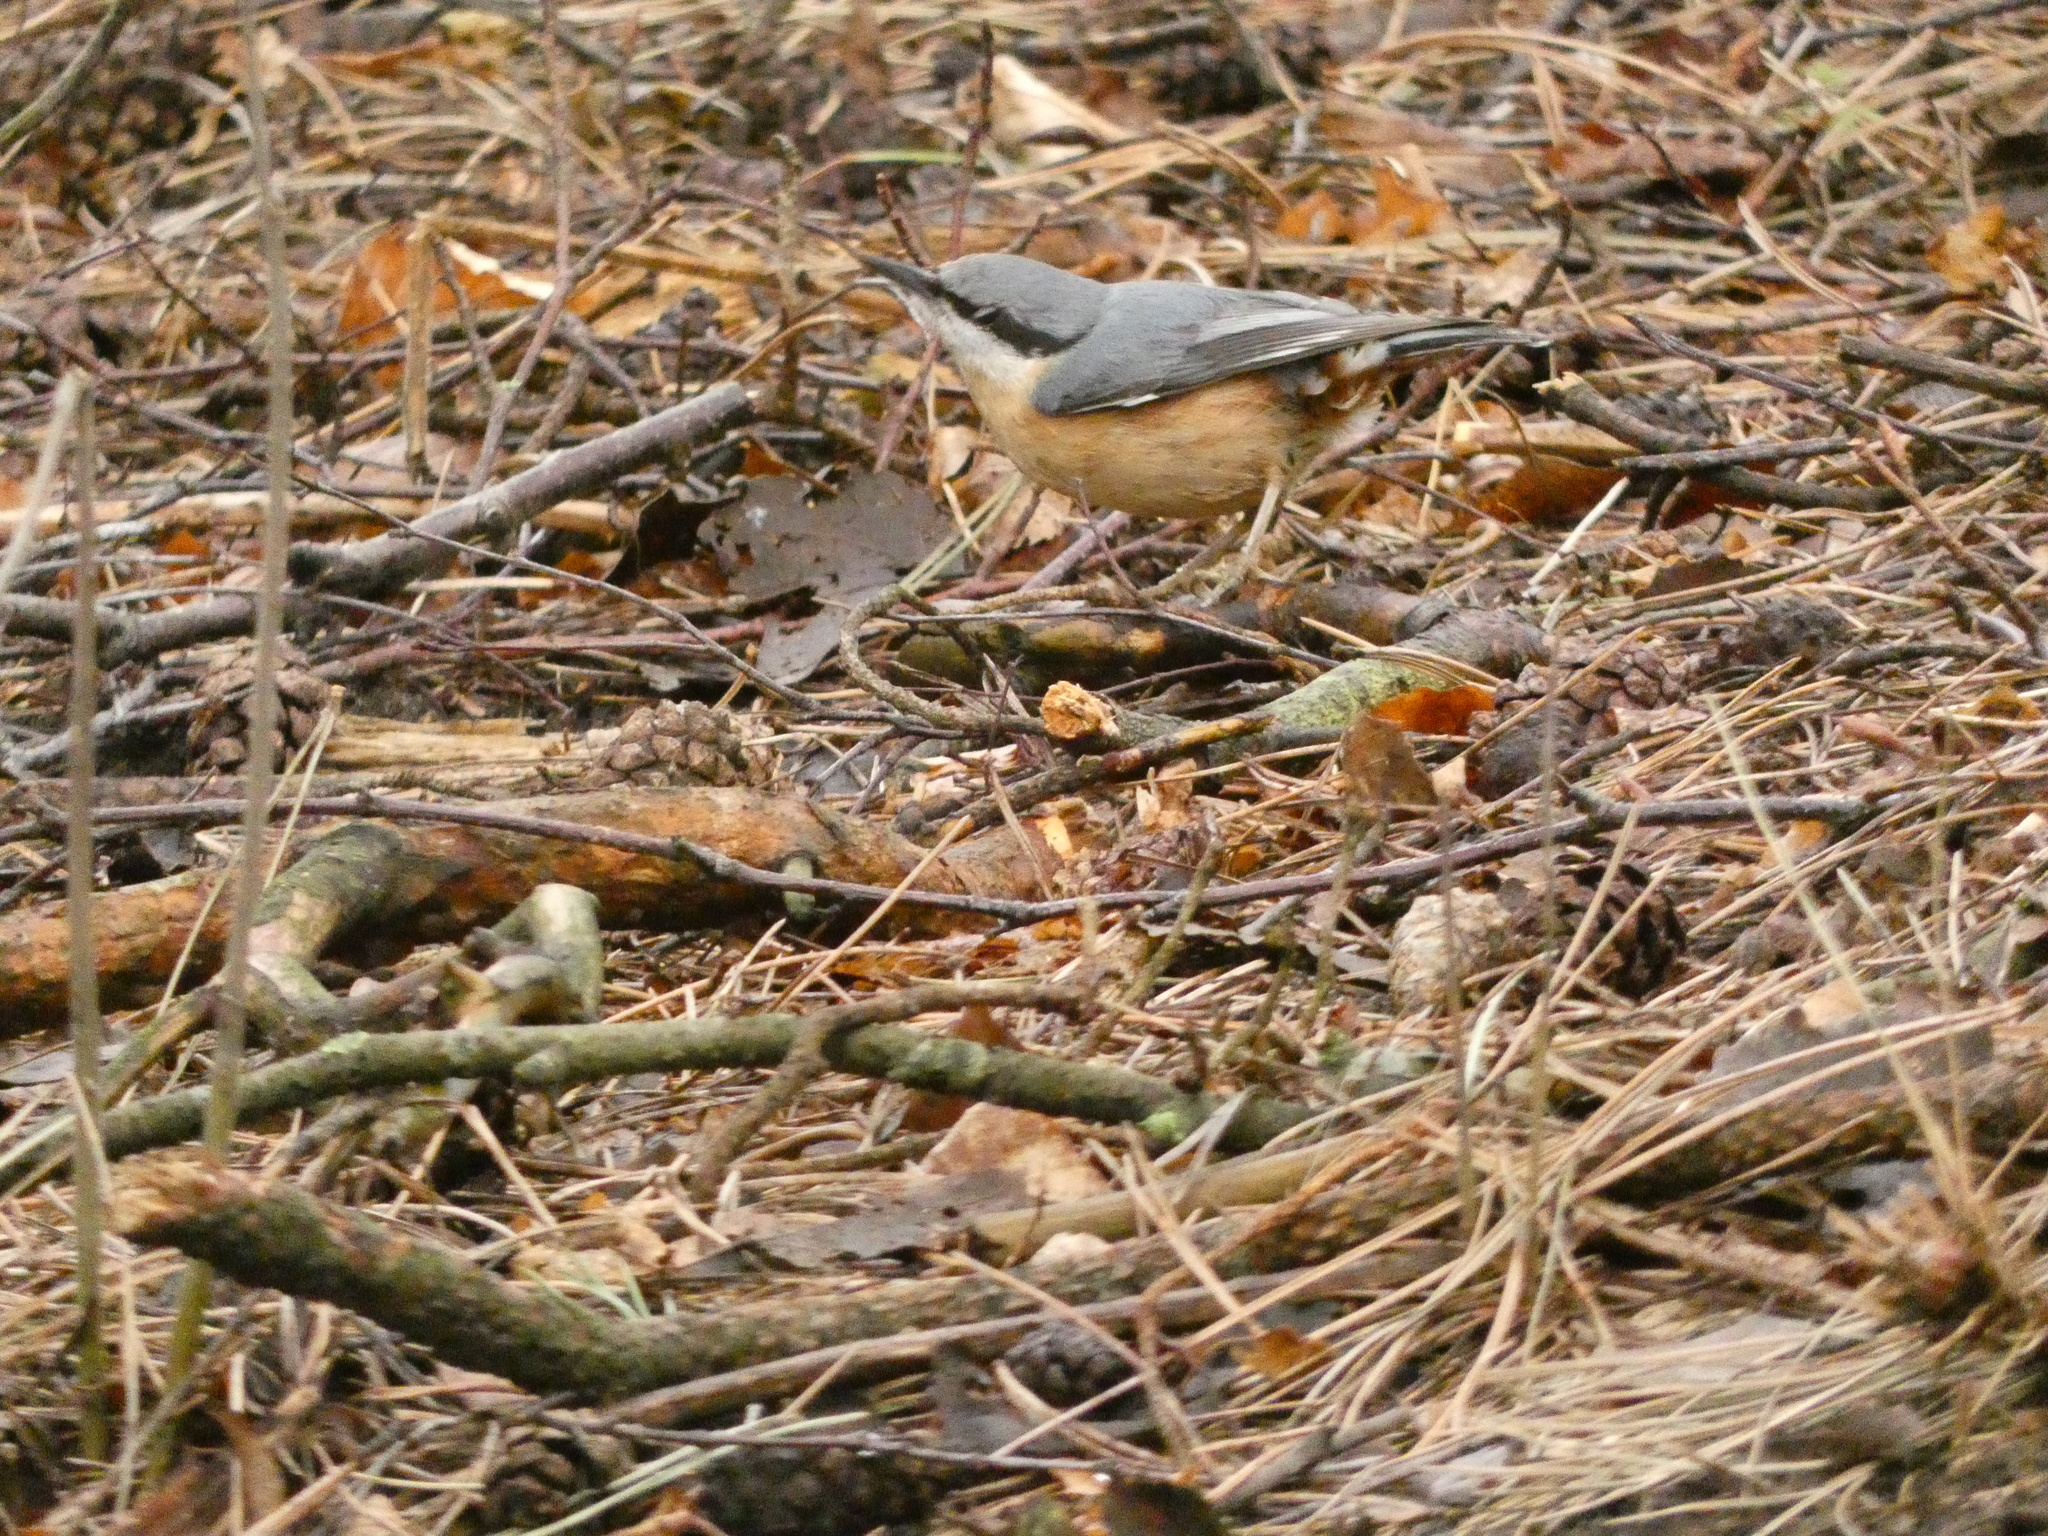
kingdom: Animalia
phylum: Chordata
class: Aves
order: Passeriformes
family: Sittidae
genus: Sitta
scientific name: Sitta europaea
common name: Eurasian nuthatch
